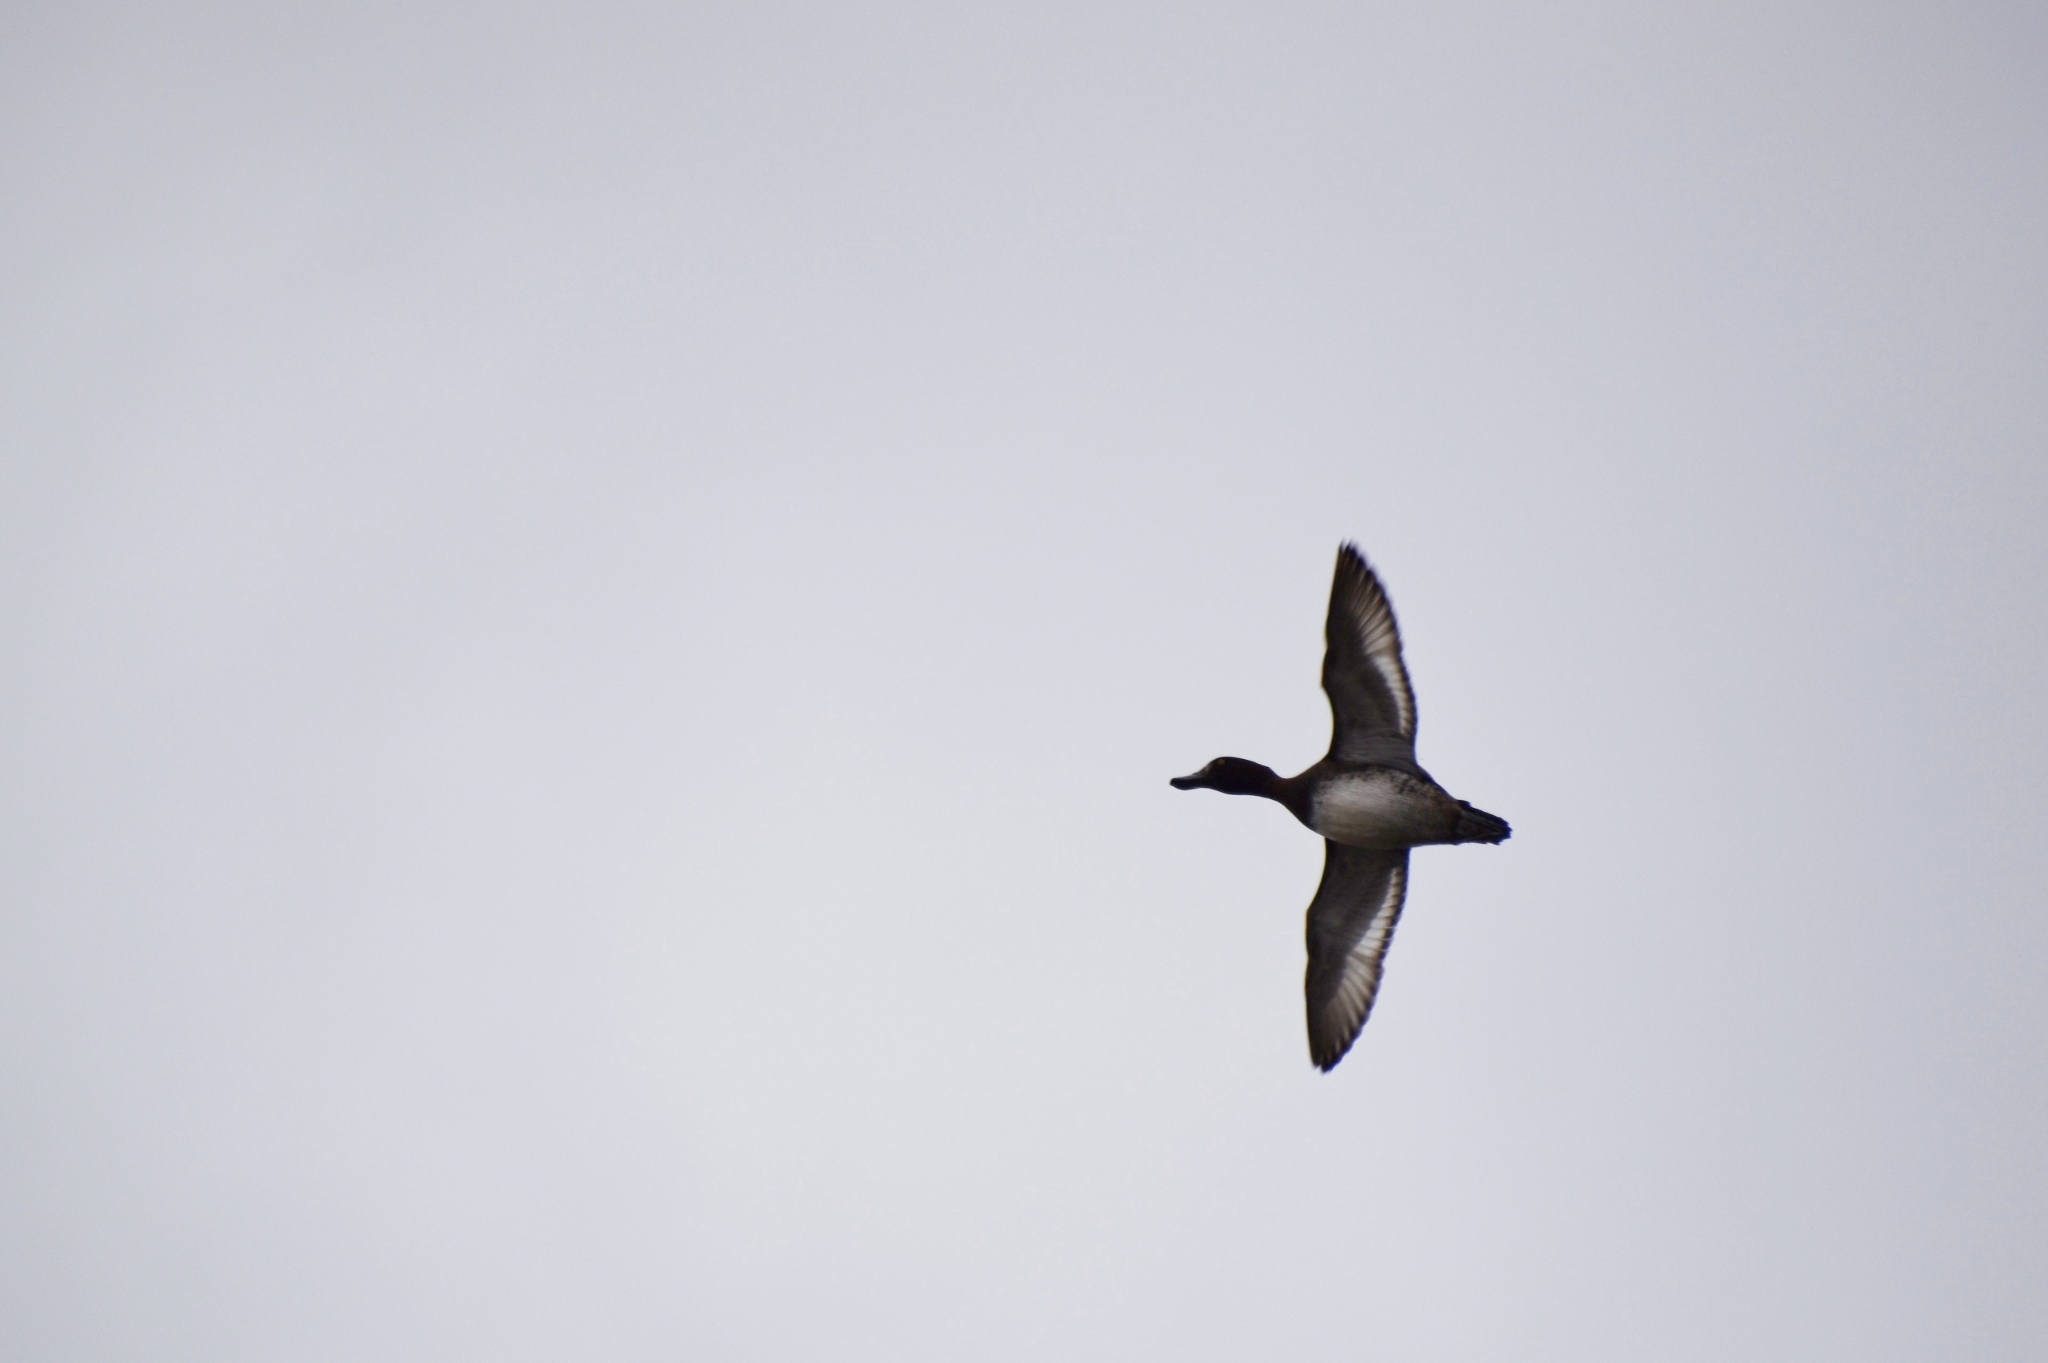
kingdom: Animalia
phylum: Chordata
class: Aves
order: Anseriformes
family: Anatidae
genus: Aythya
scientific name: Aythya fuligula
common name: Tufted duck
